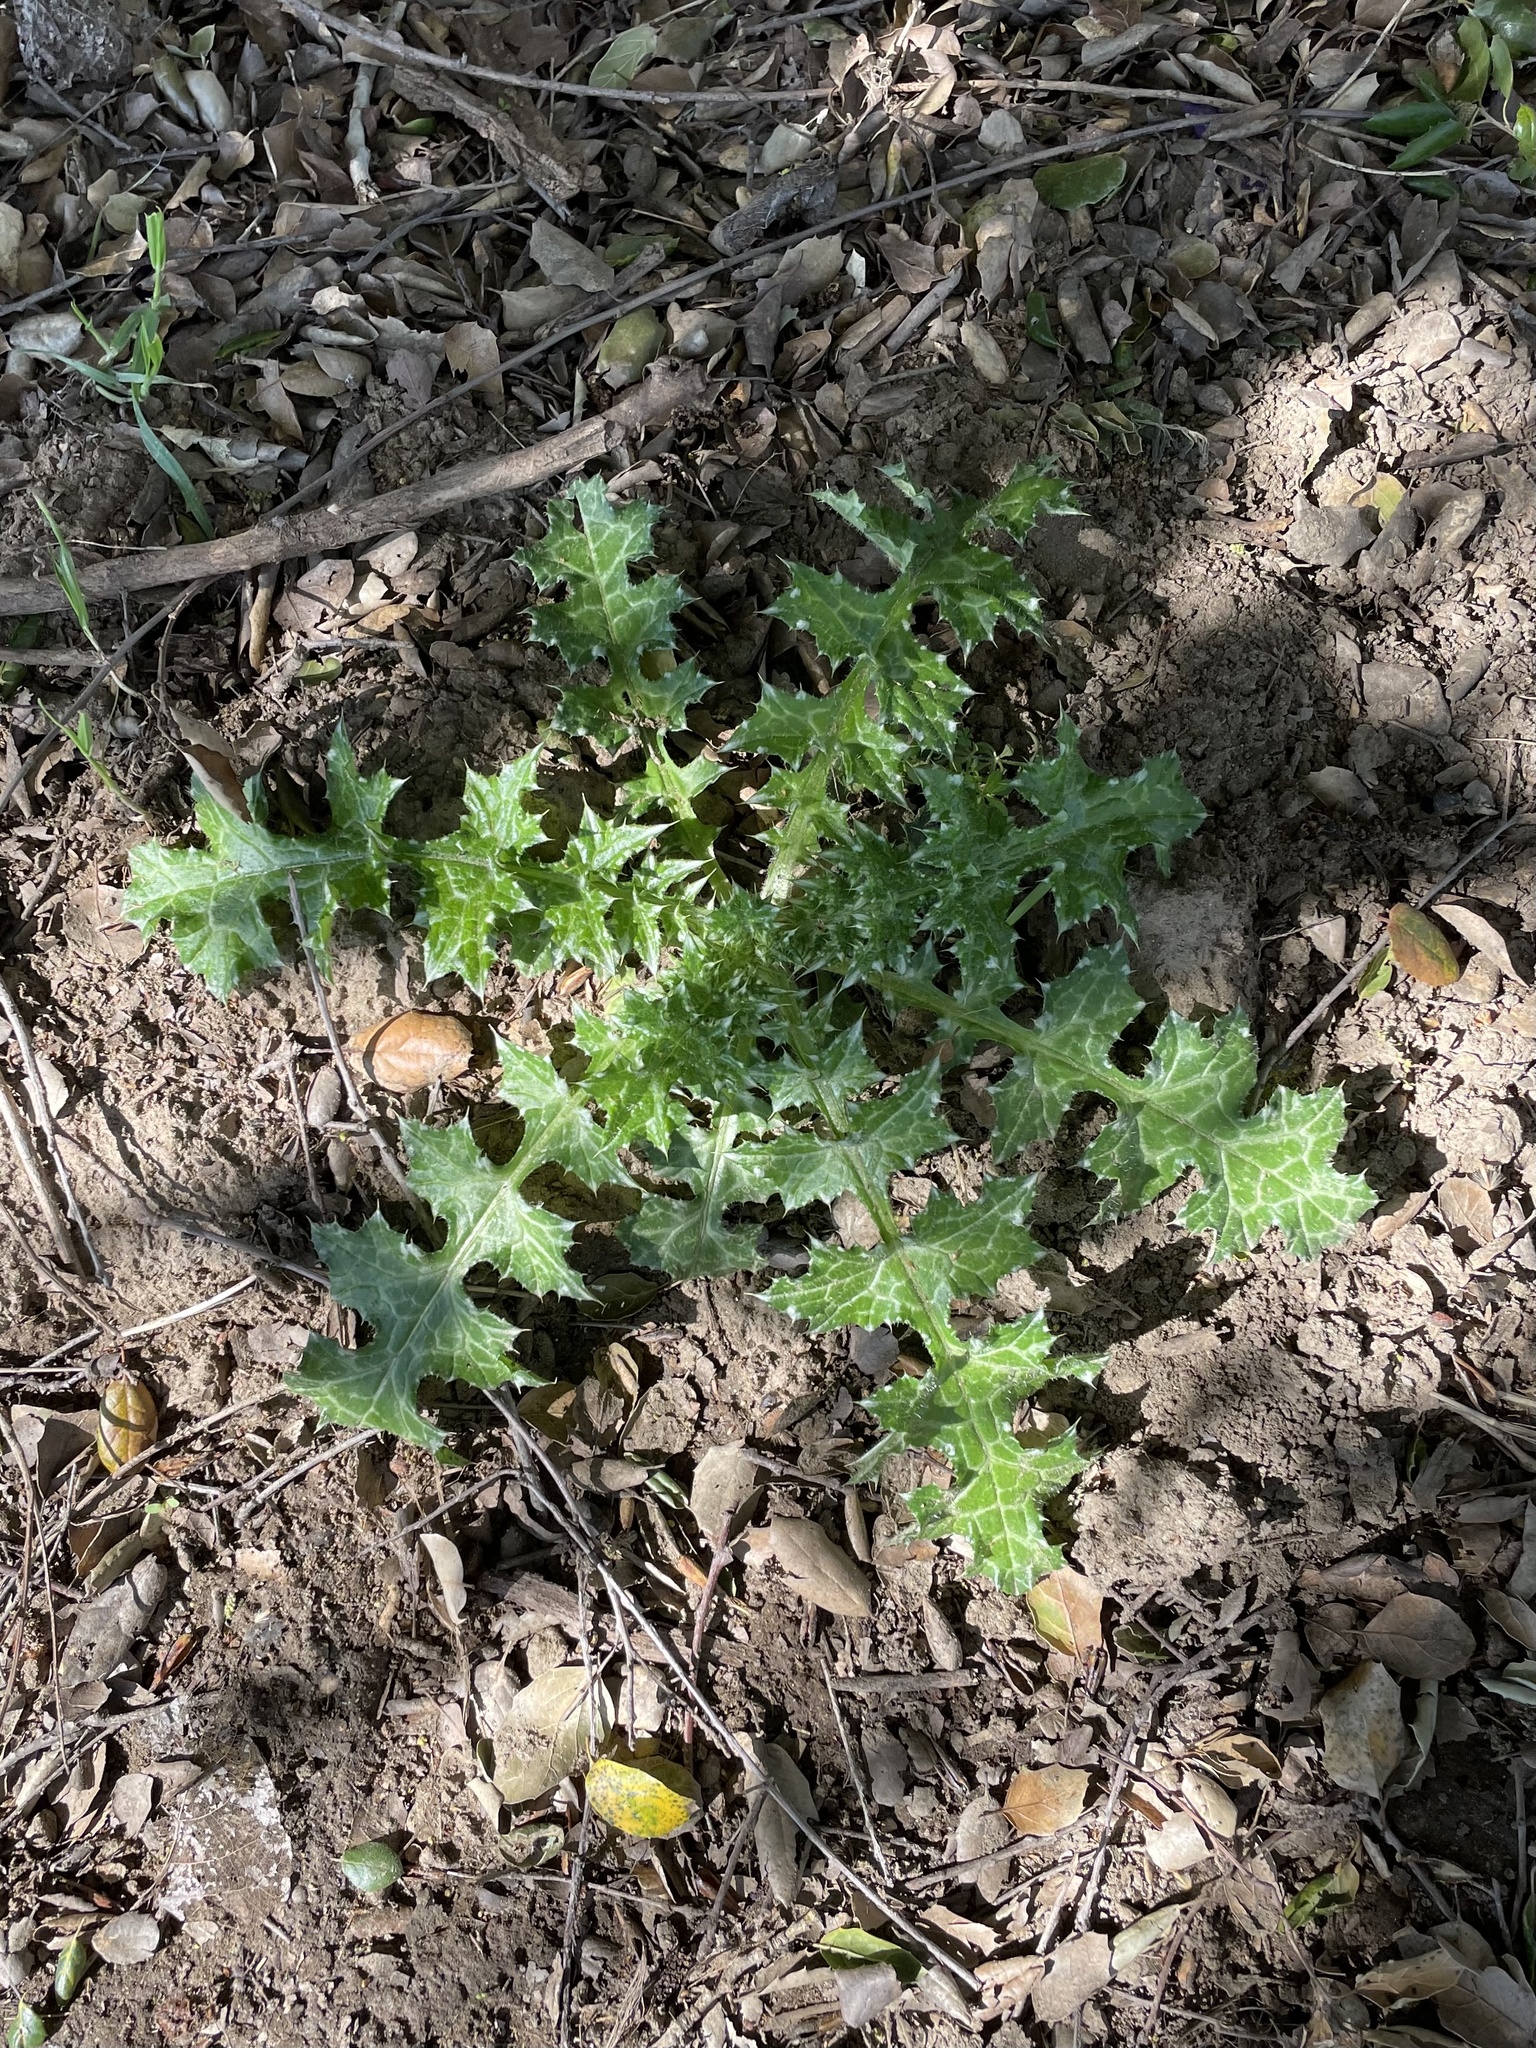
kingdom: Plantae
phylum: Tracheophyta
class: Magnoliopsida
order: Asterales
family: Asteraceae
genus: Carduus
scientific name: Carduus pycnocephalus
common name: Plymouth thistle
